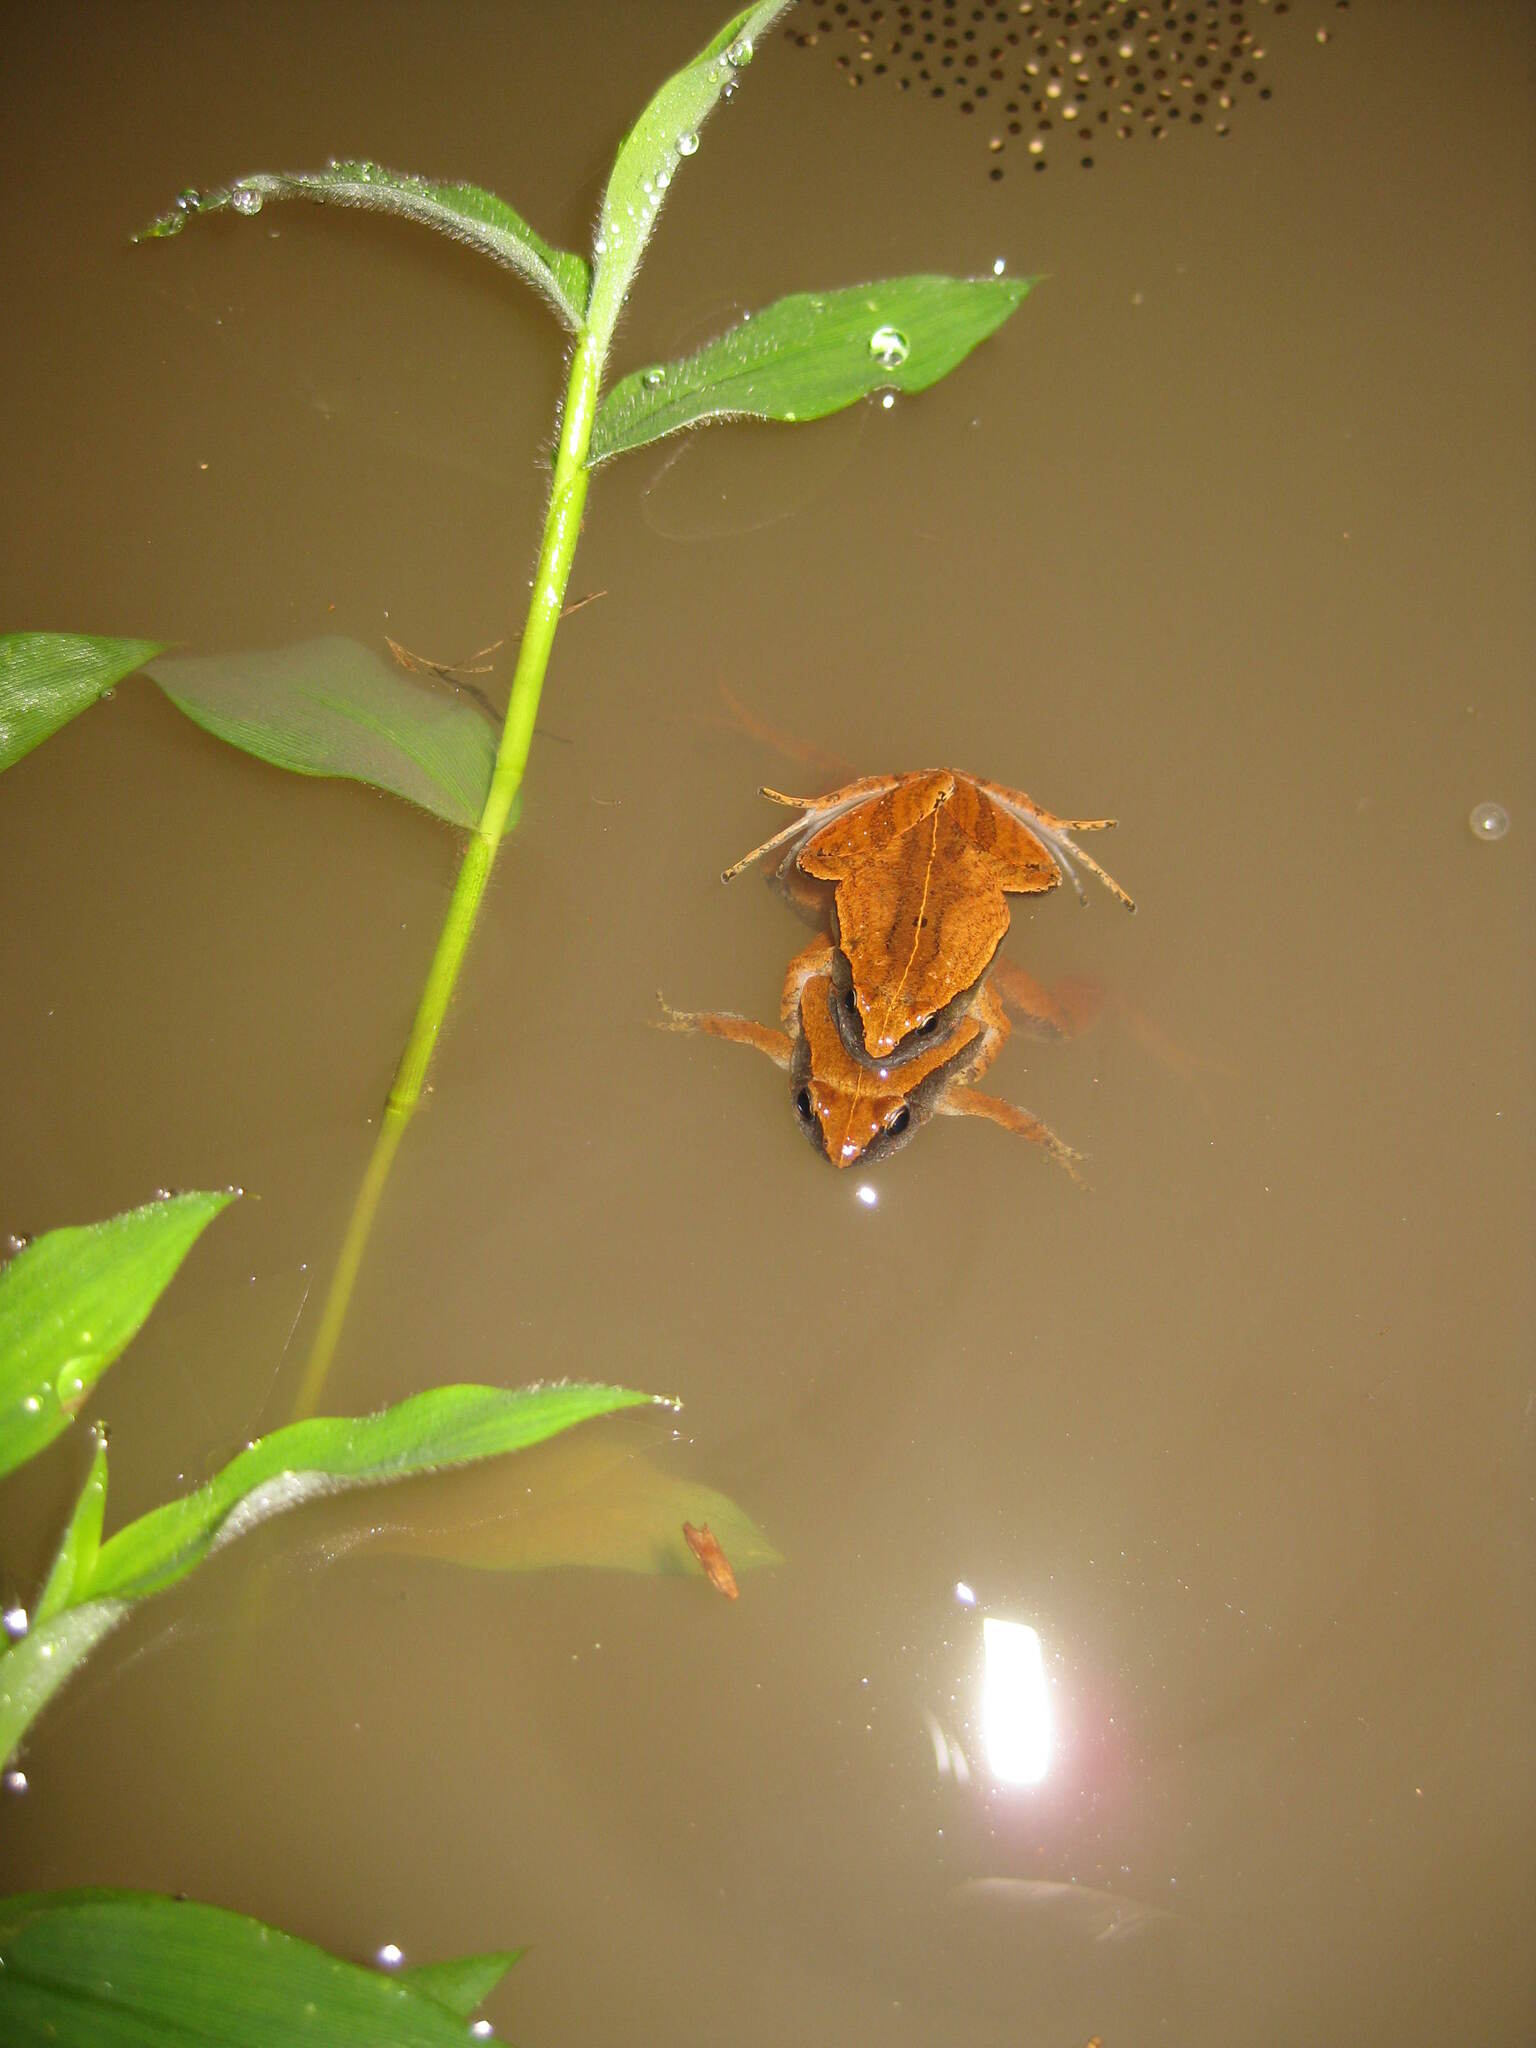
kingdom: Animalia
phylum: Chordata
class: Amphibia
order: Anura
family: Microhylidae
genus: Microhyla
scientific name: Microhyla nakkavaram
